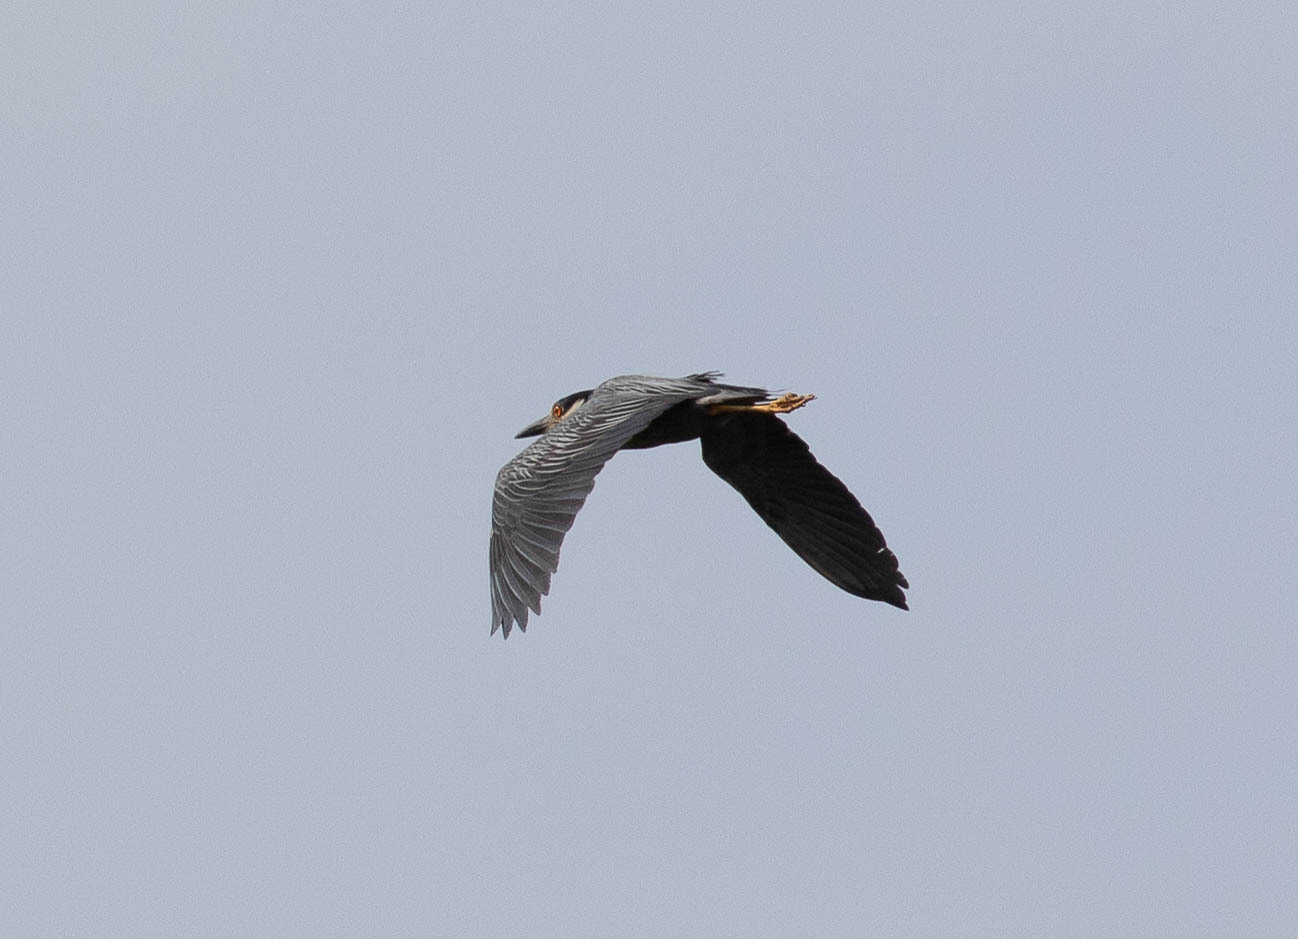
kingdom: Animalia
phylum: Chordata
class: Aves
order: Pelecaniformes
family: Ardeidae
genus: Nyctanassa
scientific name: Nyctanassa violacea
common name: Yellow-crowned night heron
